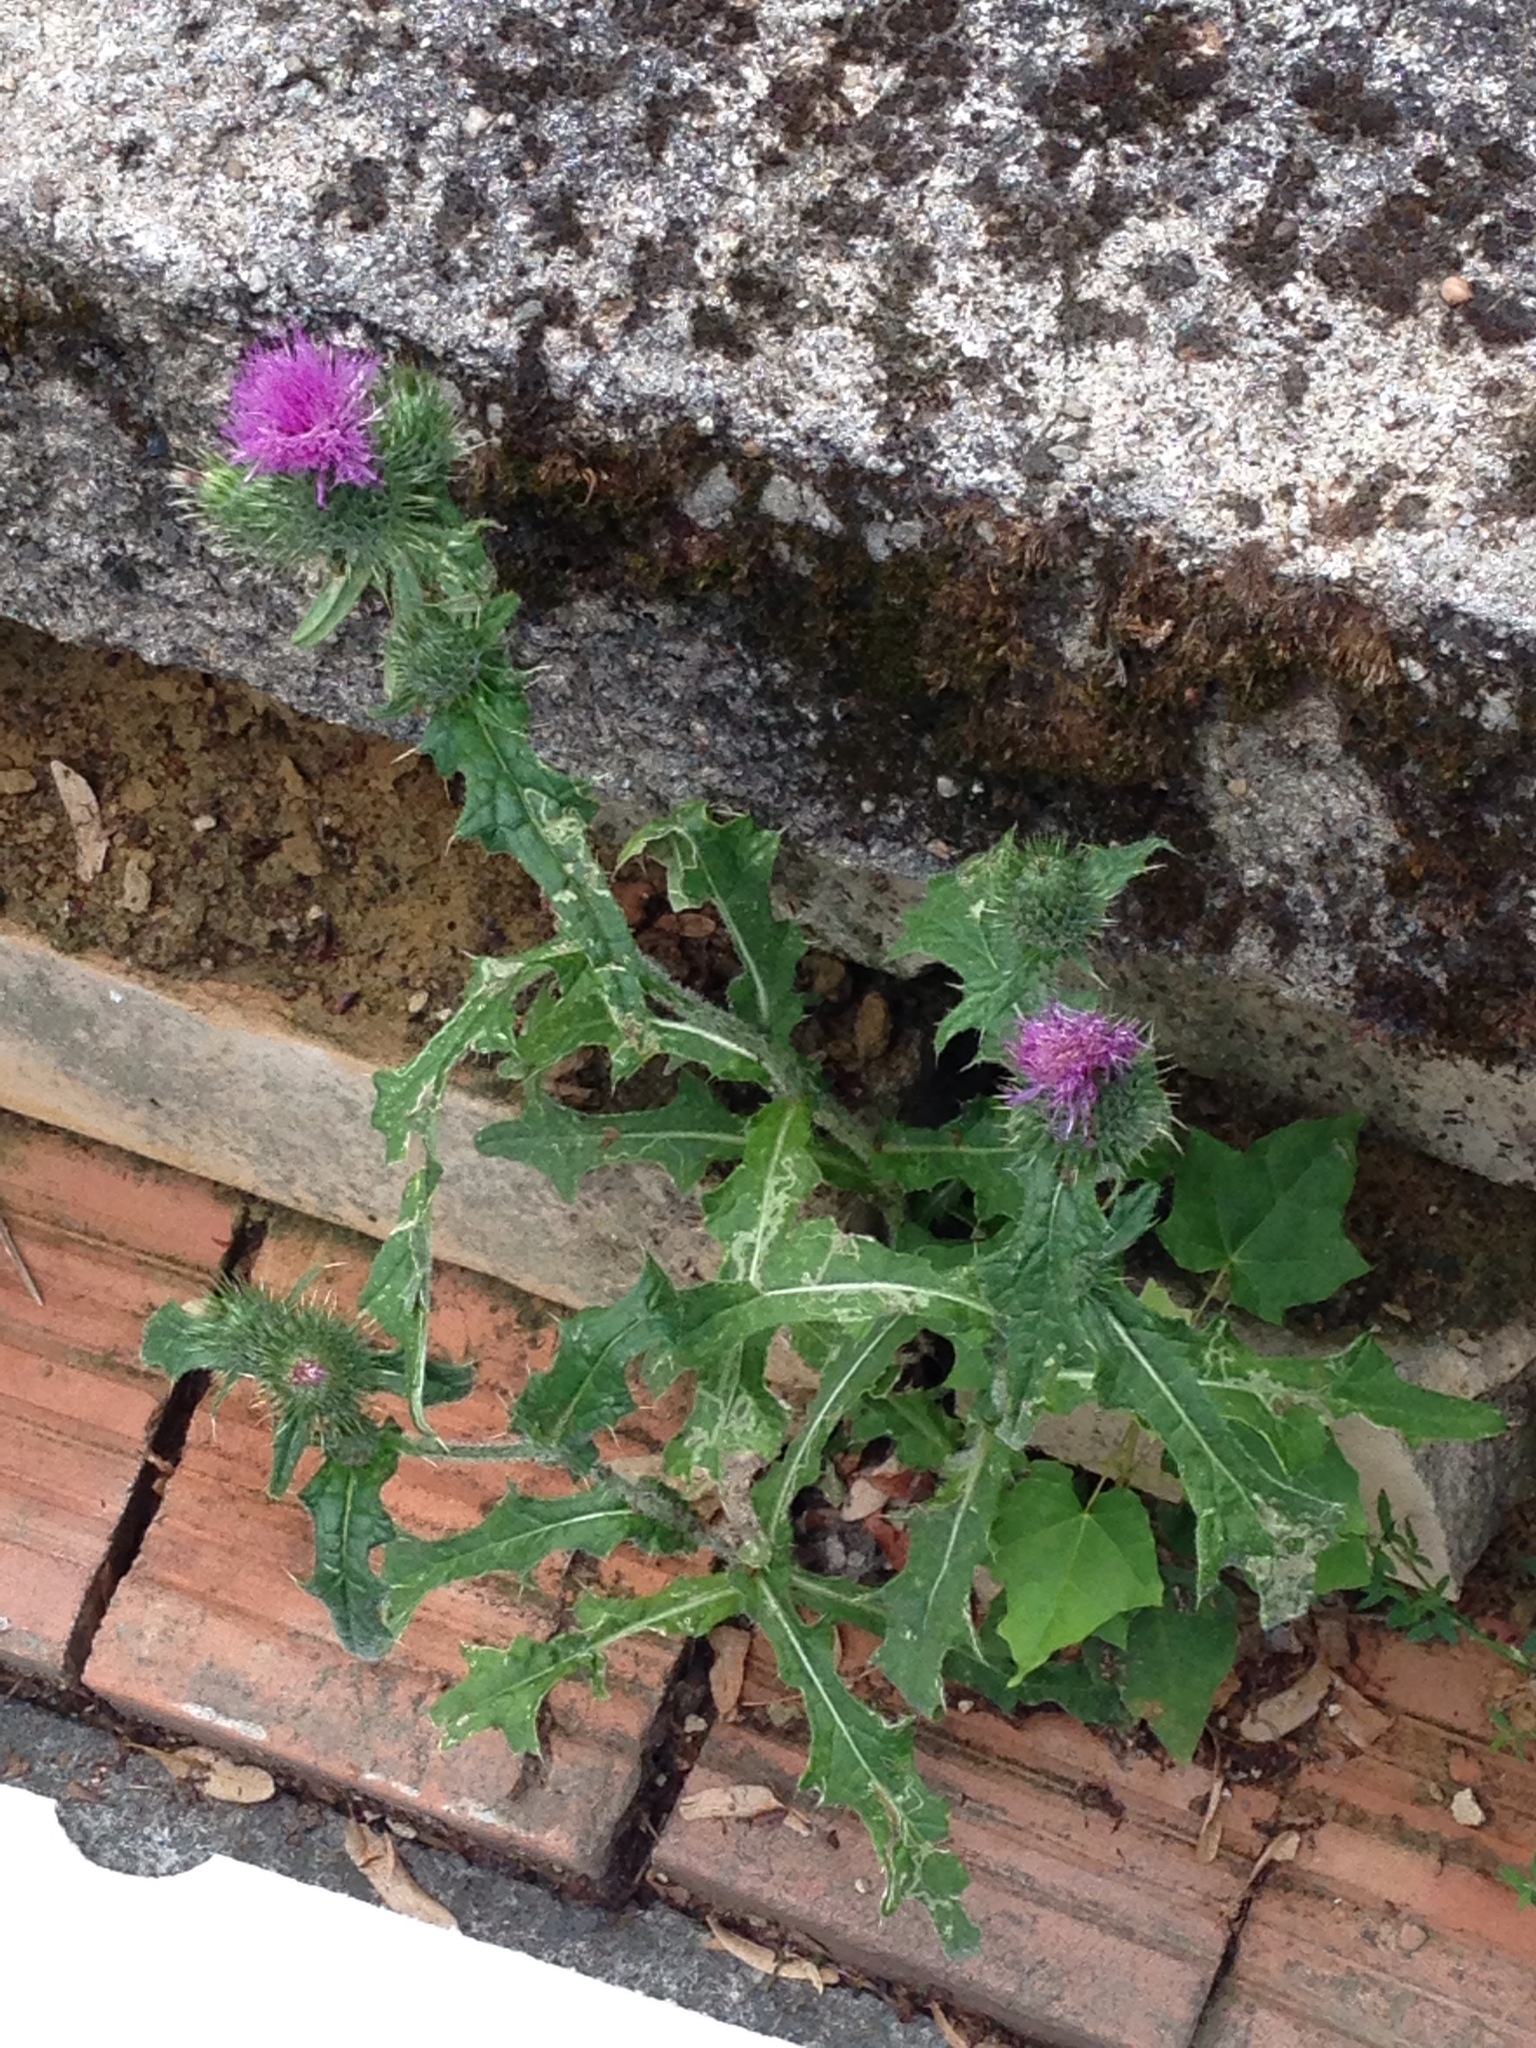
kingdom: Plantae
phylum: Tracheophyta
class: Magnoliopsida
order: Asterales
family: Asteraceae
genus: Cirsium
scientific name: Cirsium vulgare
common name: Bull thistle
